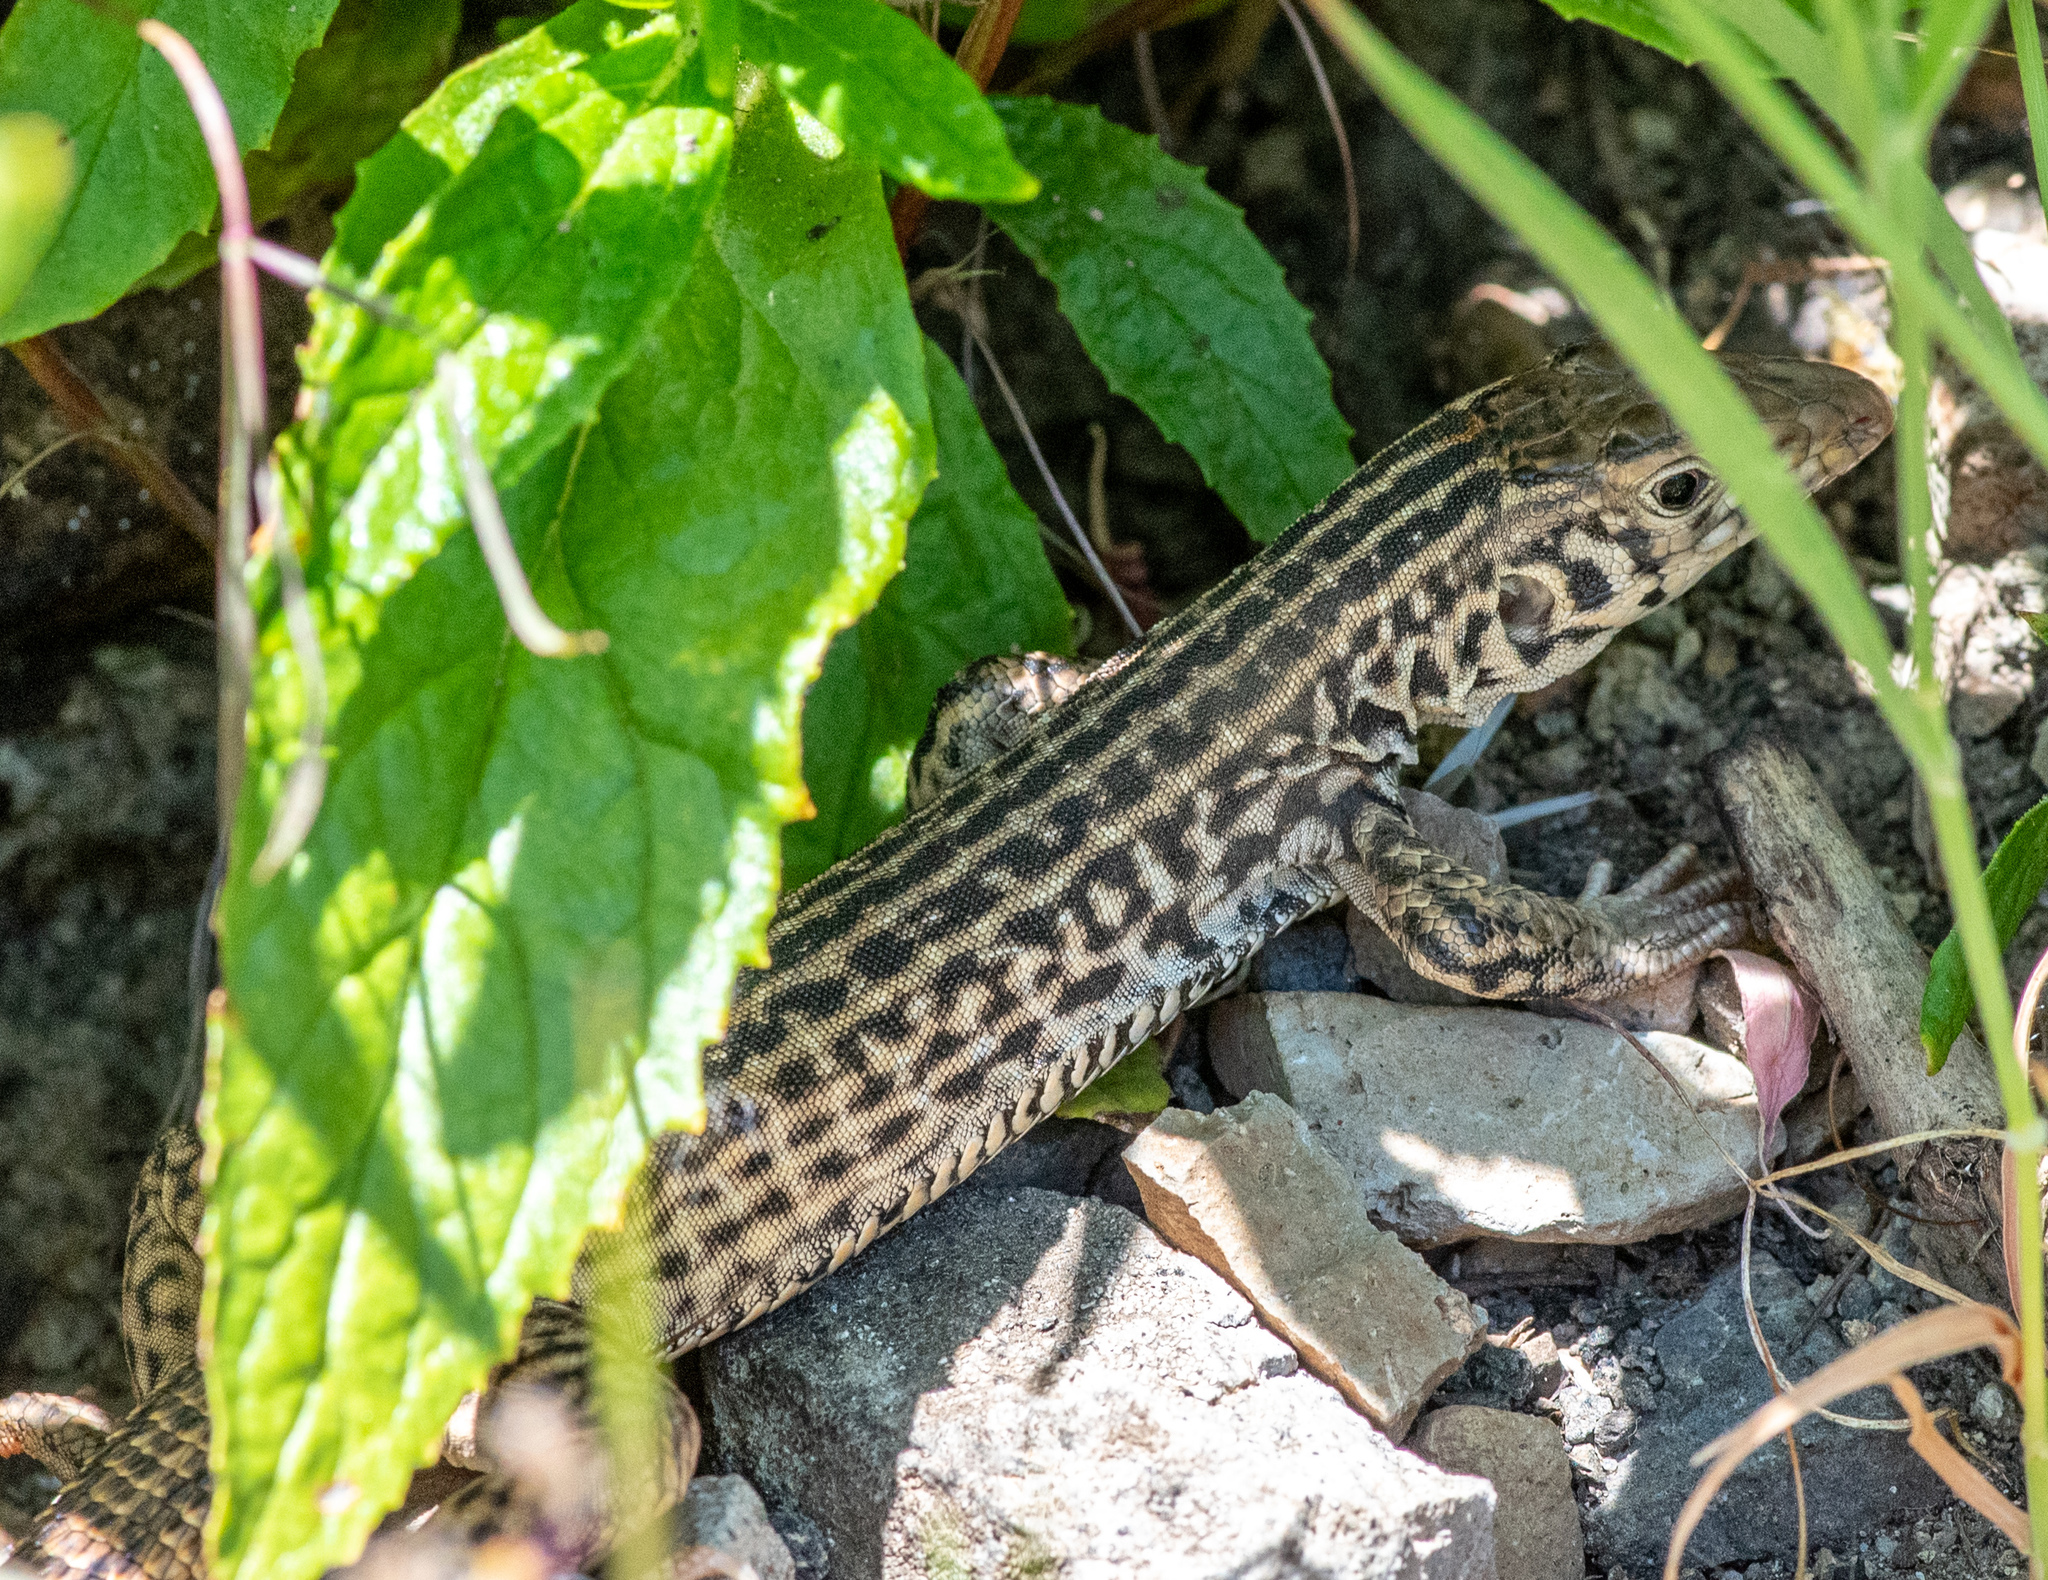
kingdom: Animalia
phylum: Chordata
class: Squamata
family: Teiidae
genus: Aspidoscelis
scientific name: Aspidoscelis tigris
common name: Tiger whiptail
